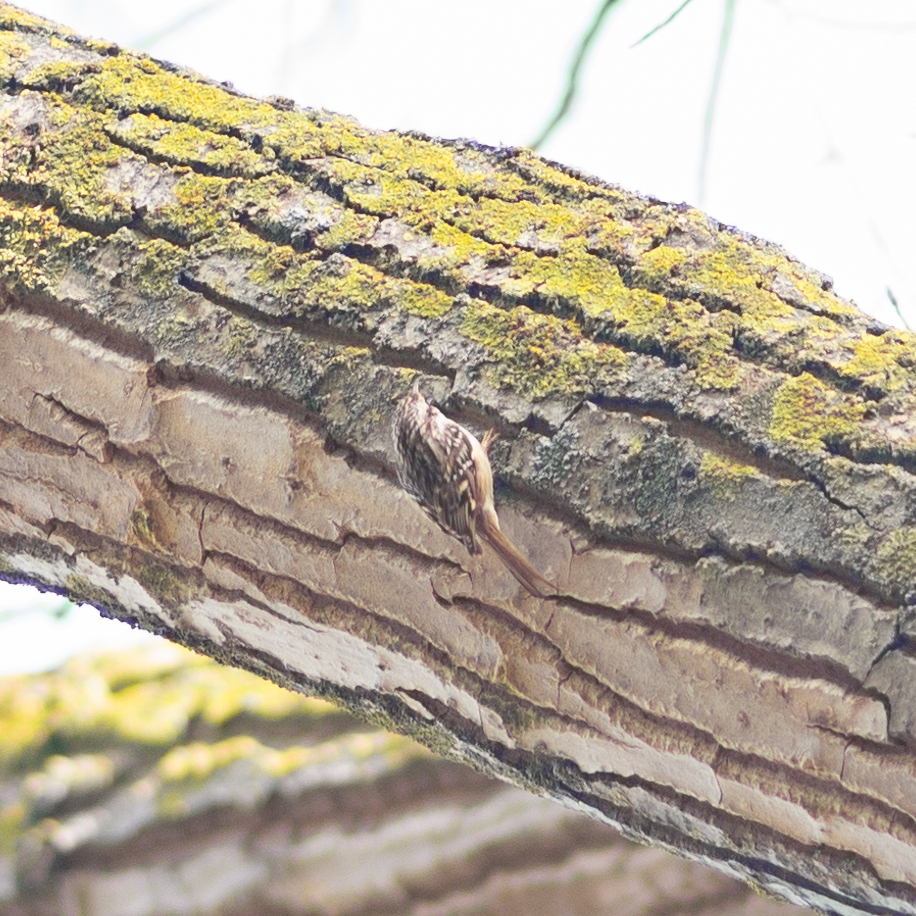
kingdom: Animalia
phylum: Chordata
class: Aves
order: Passeriformes
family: Certhiidae
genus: Certhia
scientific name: Certhia brachydactyla
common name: Short-toed treecreeper
